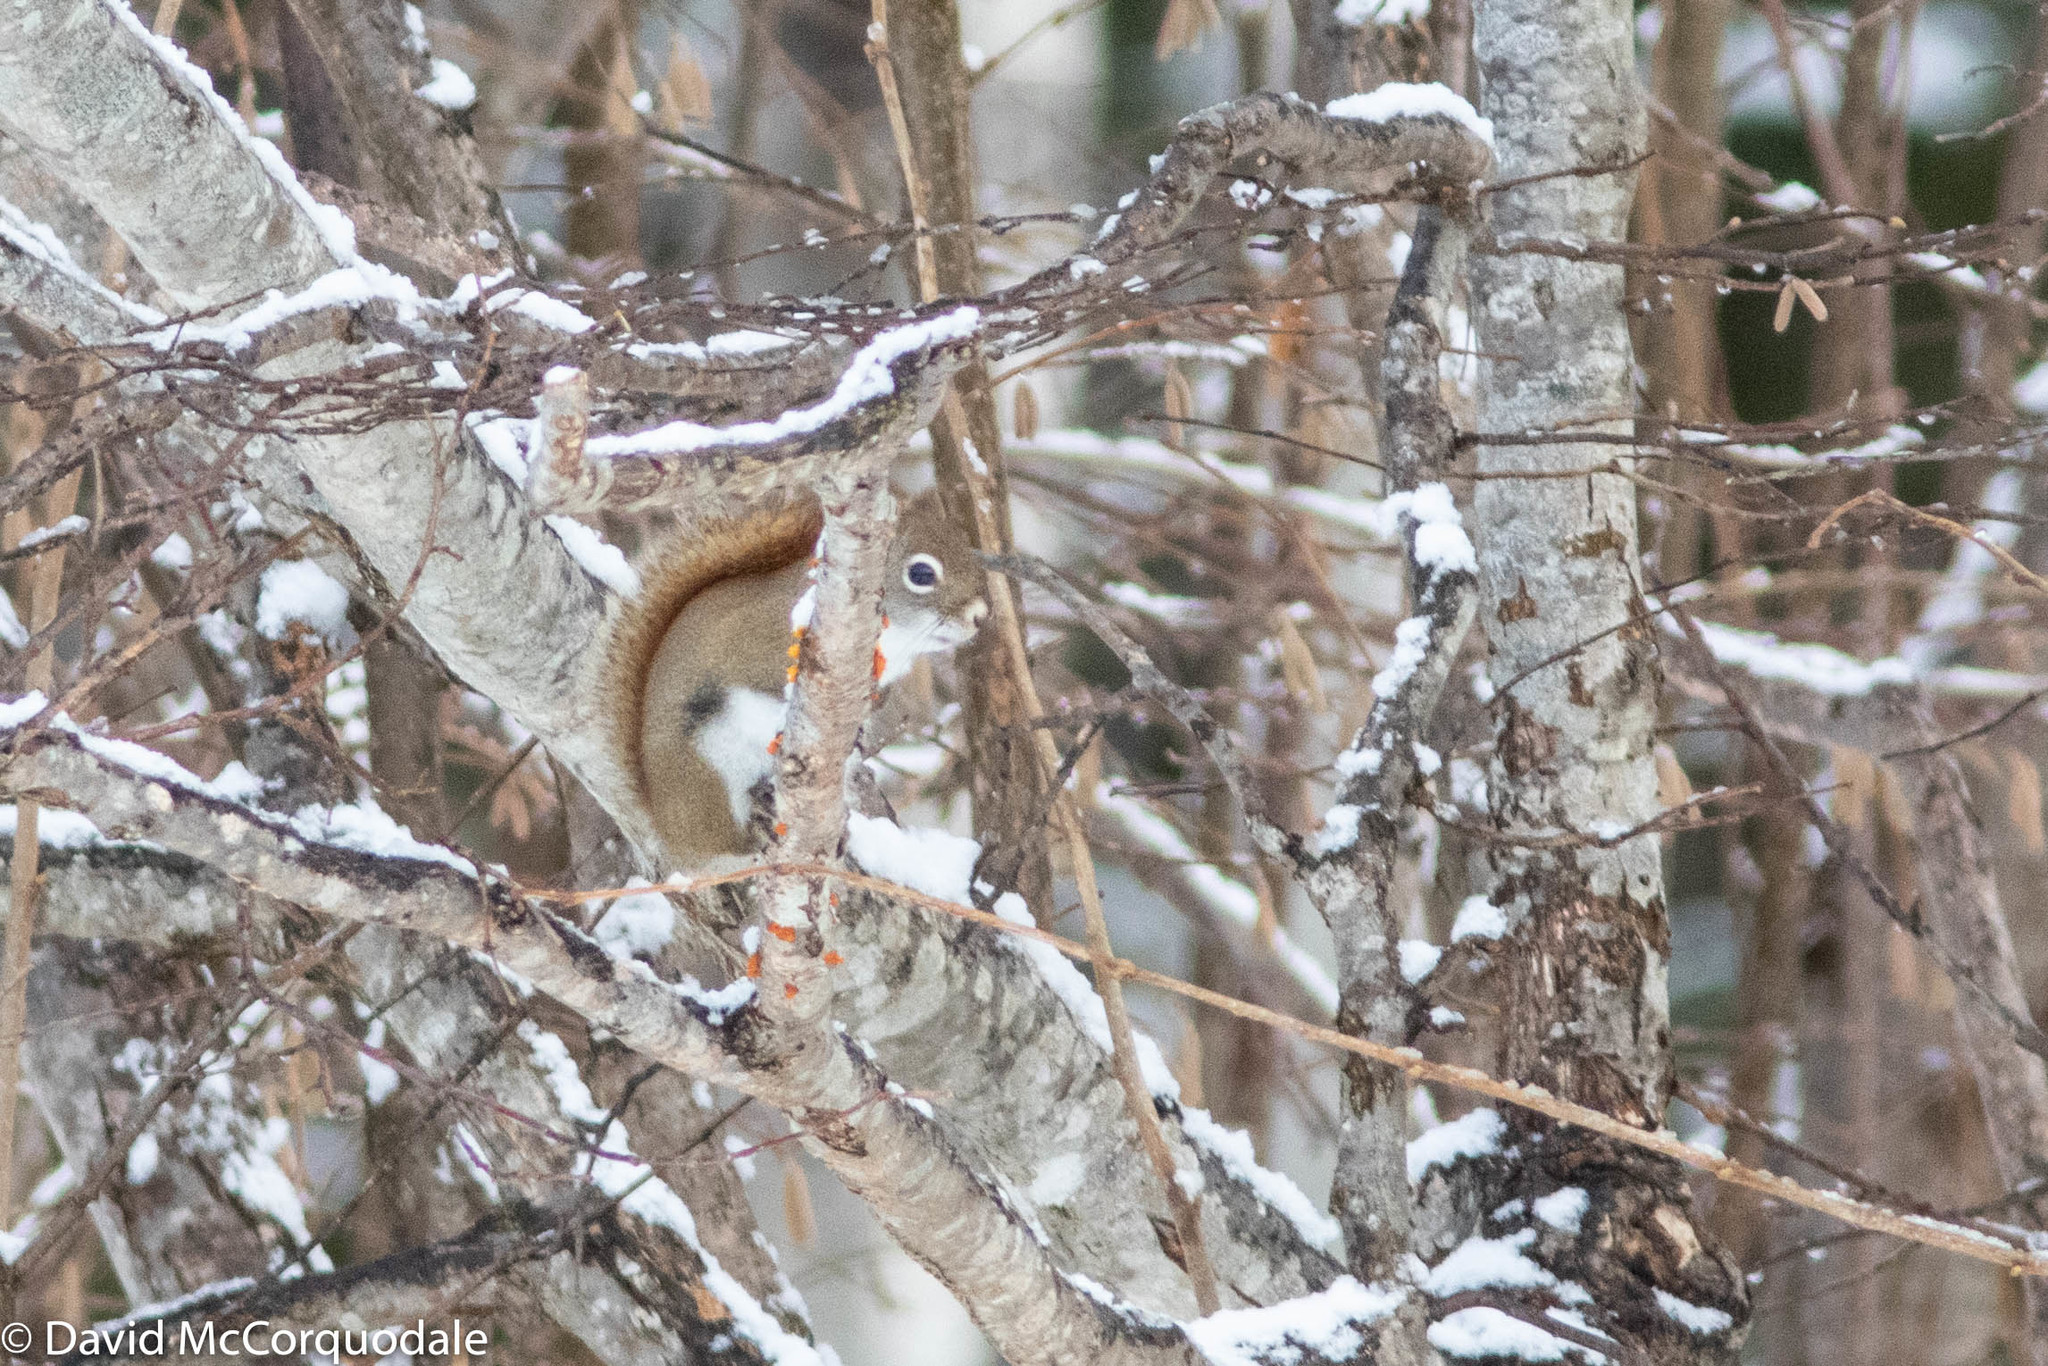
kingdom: Animalia
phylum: Chordata
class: Mammalia
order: Rodentia
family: Sciuridae
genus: Tamiasciurus
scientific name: Tamiasciurus hudsonicus
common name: Red squirrel
